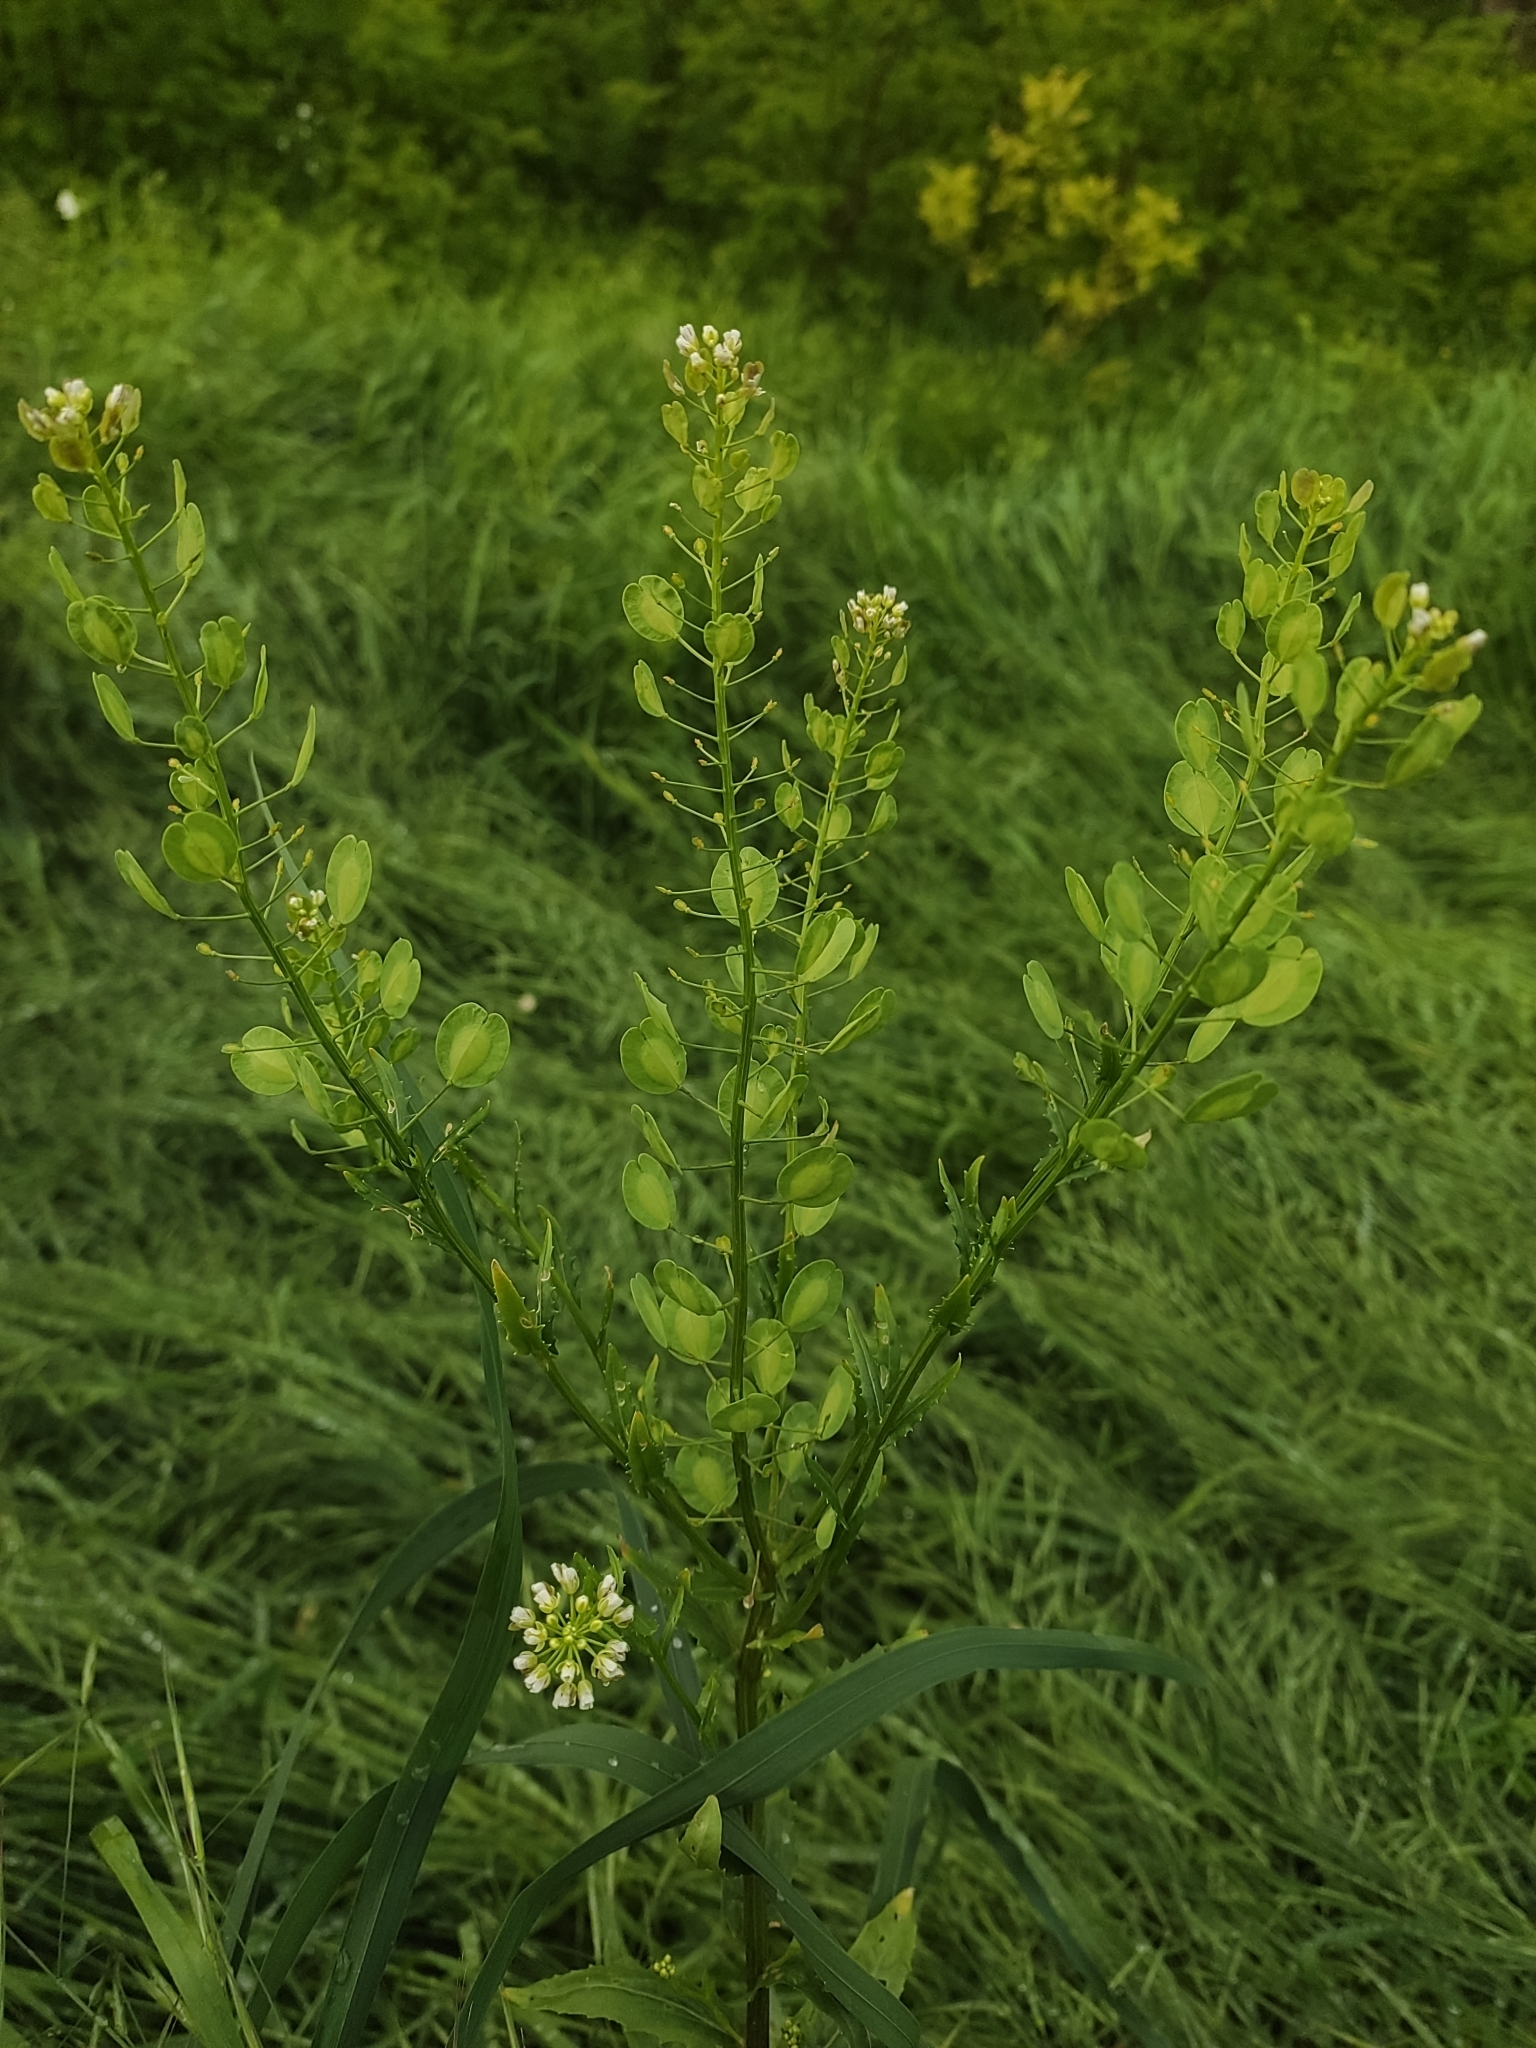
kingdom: Plantae
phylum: Tracheophyta
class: Magnoliopsida
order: Brassicales
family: Brassicaceae
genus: Thlaspi
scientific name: Thlaspi arvense
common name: Field pennycress
